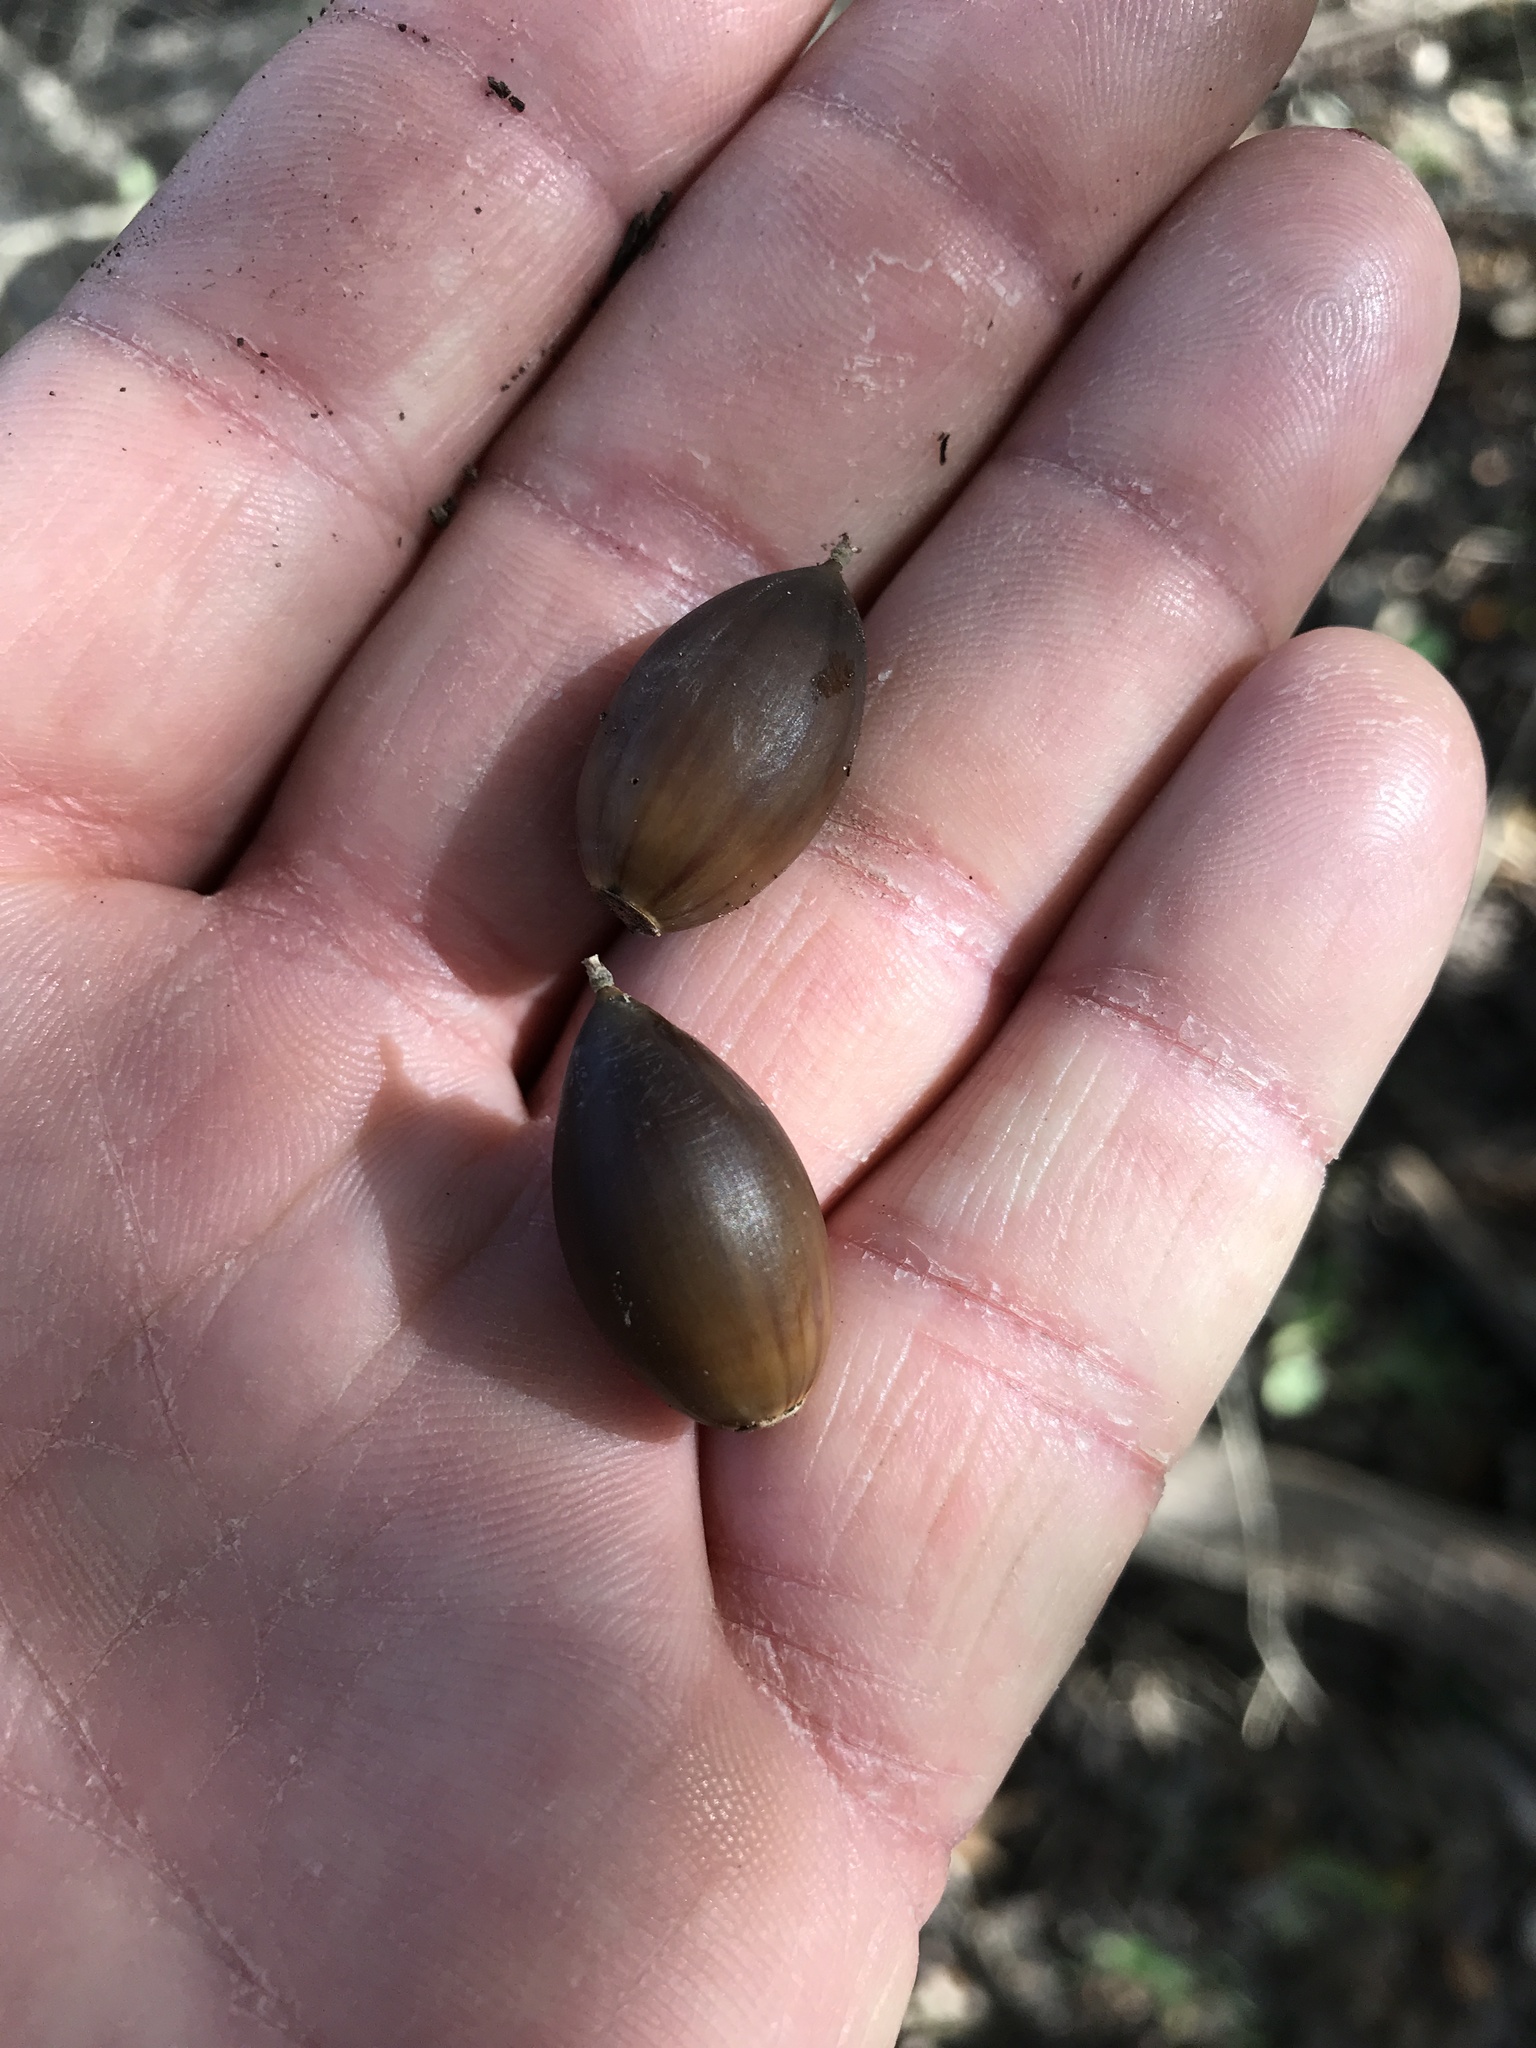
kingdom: Plantae
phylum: Tracheophyta
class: Magnoliopsida
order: Fagales
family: Fagaceae
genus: Quercus
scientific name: Quercus fusiformis
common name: Texas live oak
